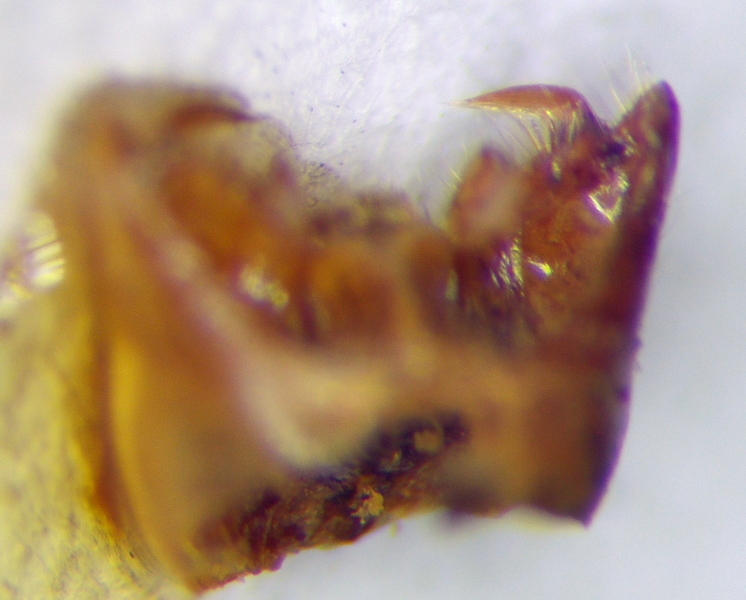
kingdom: Animalia
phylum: Arthropoda
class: Insecta
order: Hemiptera
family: Miridae
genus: Orthops
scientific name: Orthops kalmii
